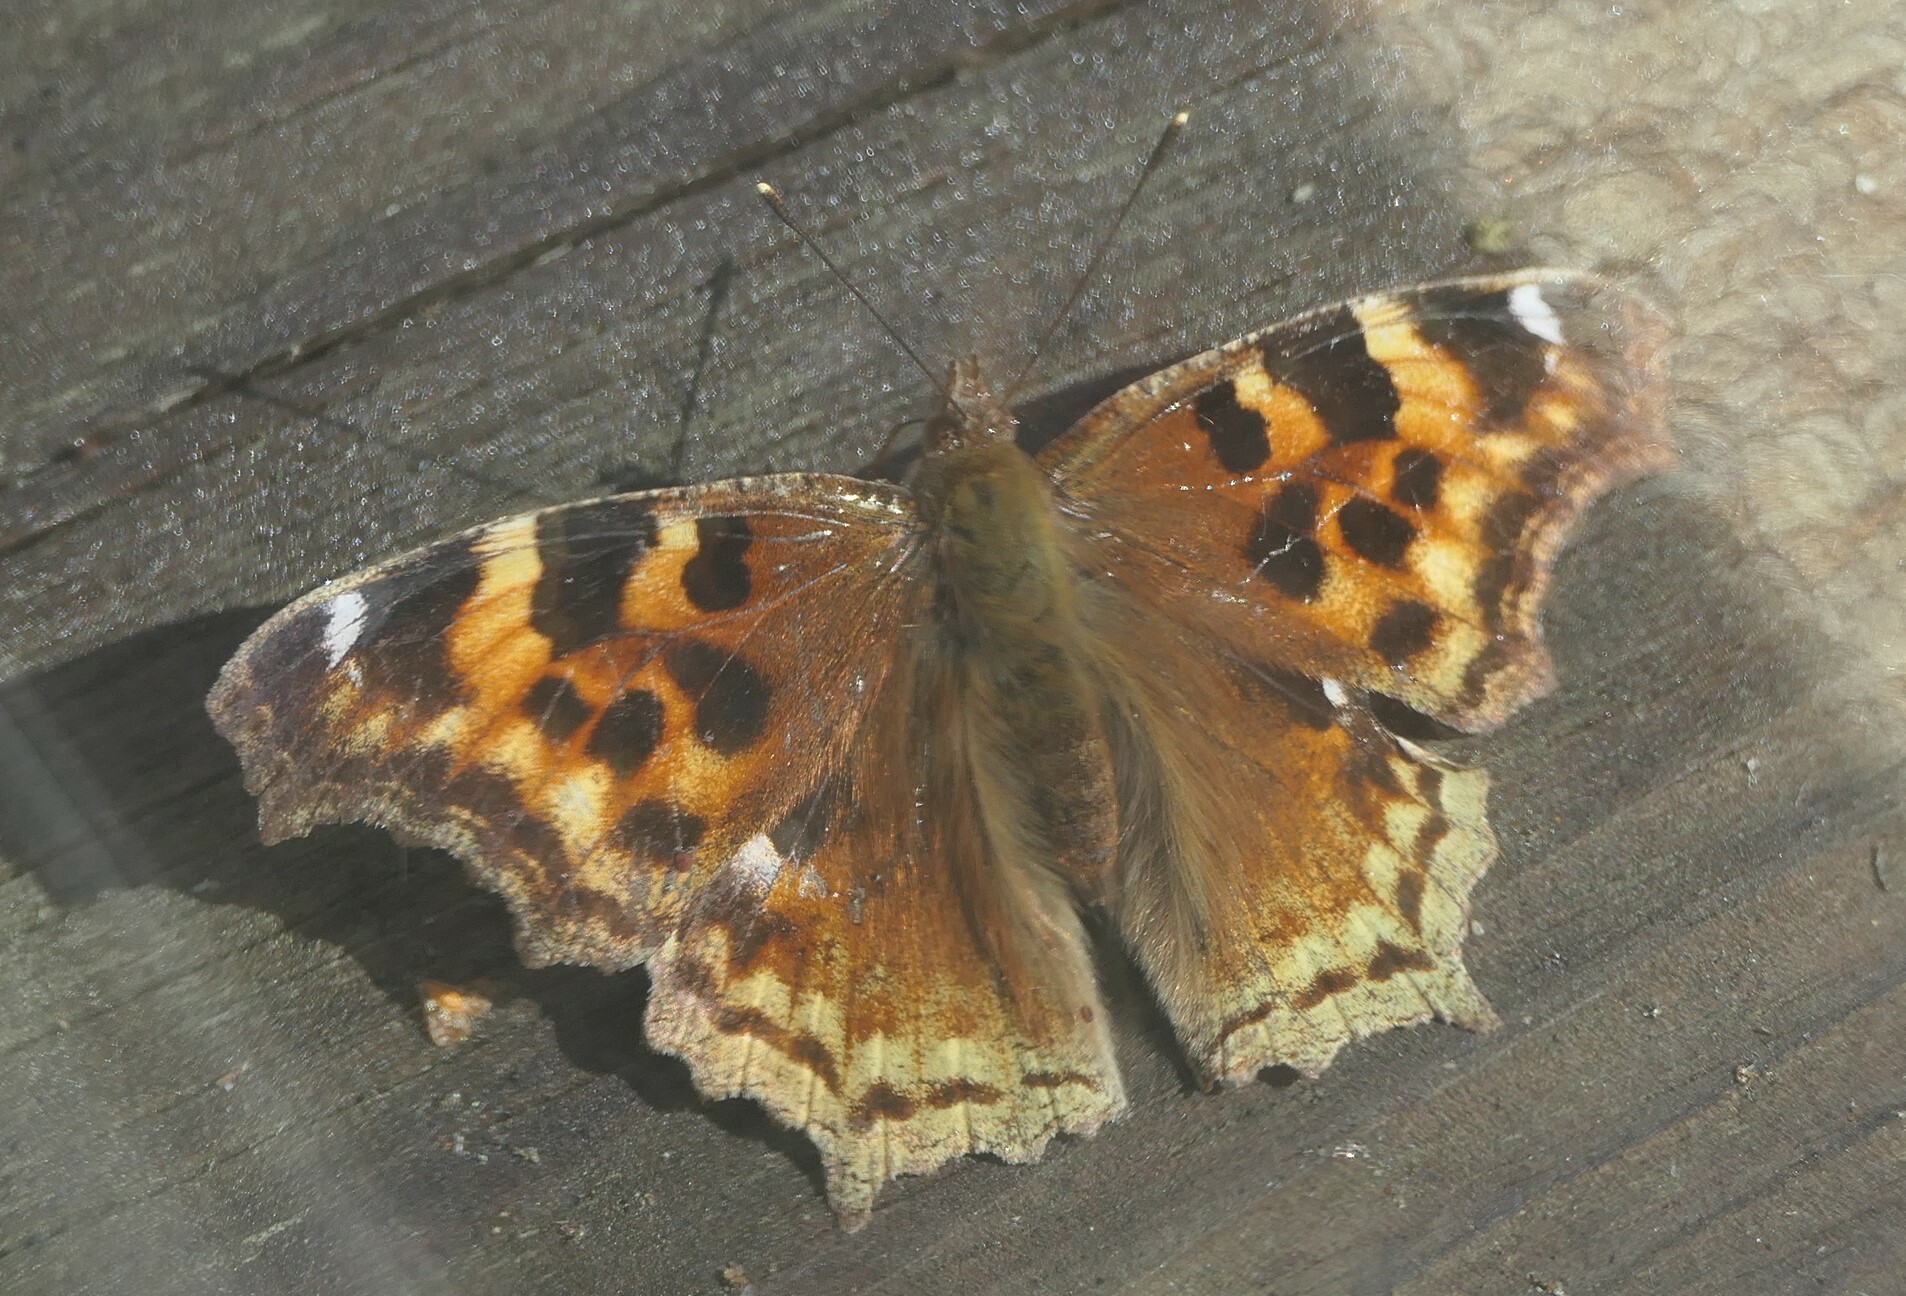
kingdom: Animalia
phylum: Arthropoda
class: Insecta
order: Lepidoptera
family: Nymphalidae
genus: Polygonia
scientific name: Polygonia vaualbum
